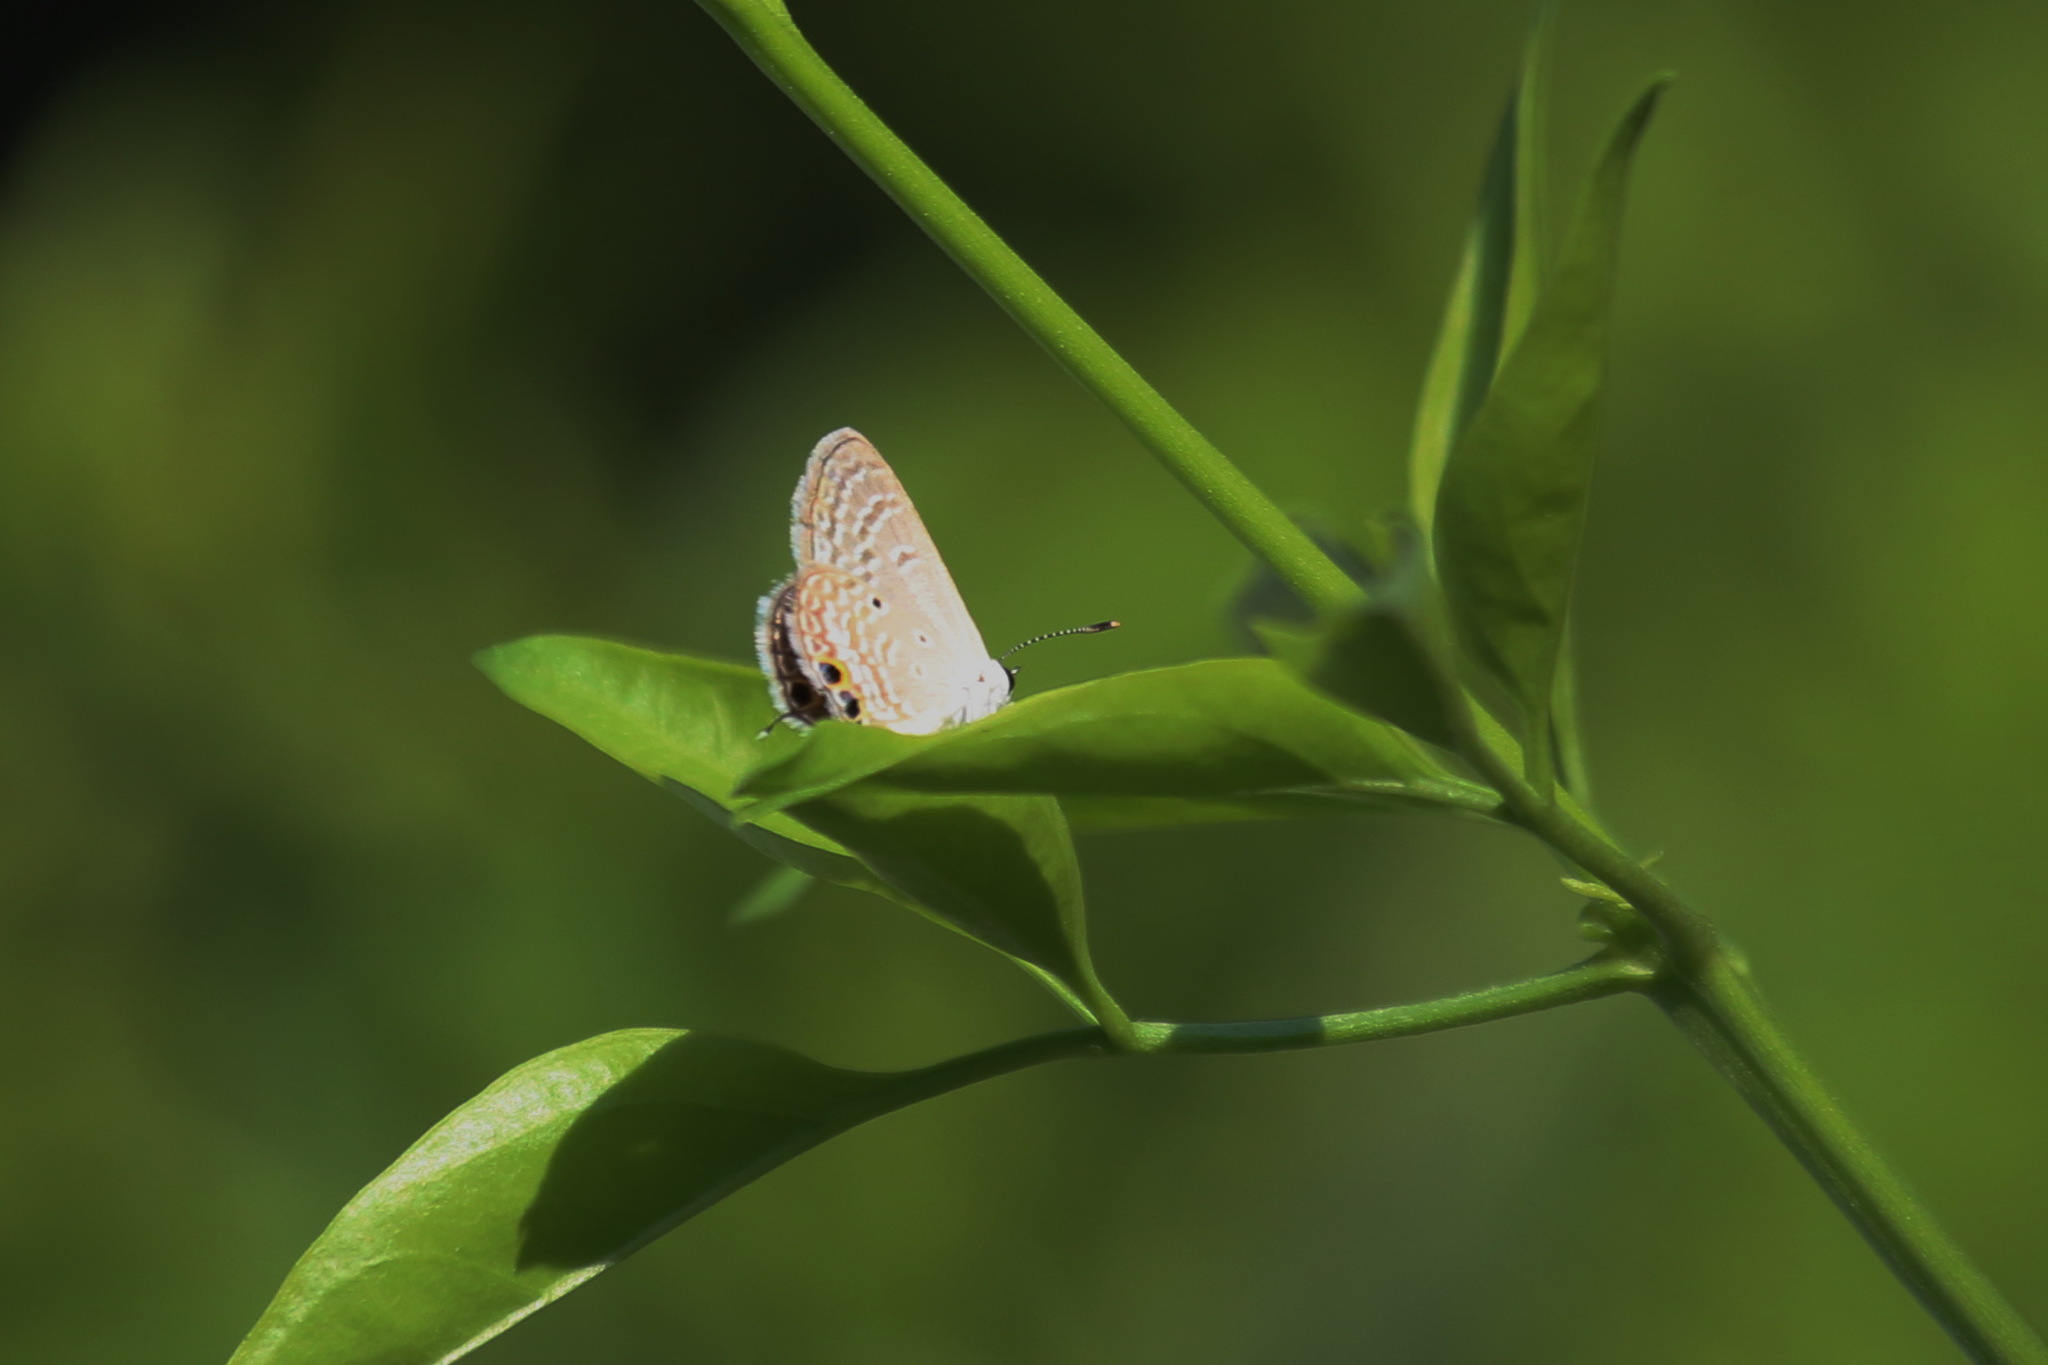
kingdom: Animalia
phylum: Arthropoda
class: Insecta
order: Lepidoptera
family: Lycaenidae
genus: Luthrodes
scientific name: Luthrodes pandava
